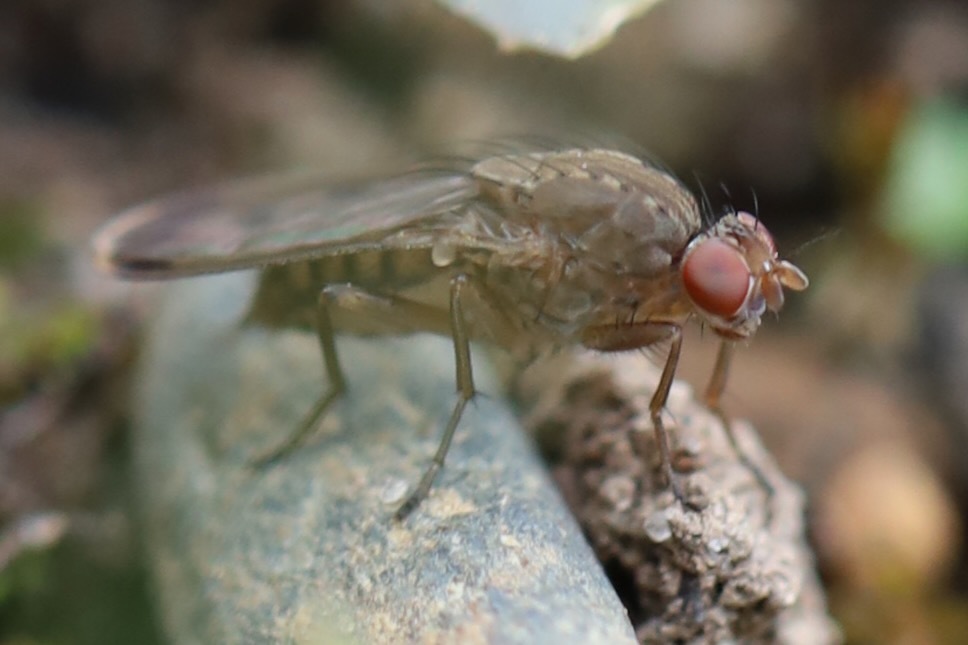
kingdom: Animalia
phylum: Arthropoda
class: Insecta
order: Diptera
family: Heleomyzidae
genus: Suillia
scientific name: Suillia variegata
